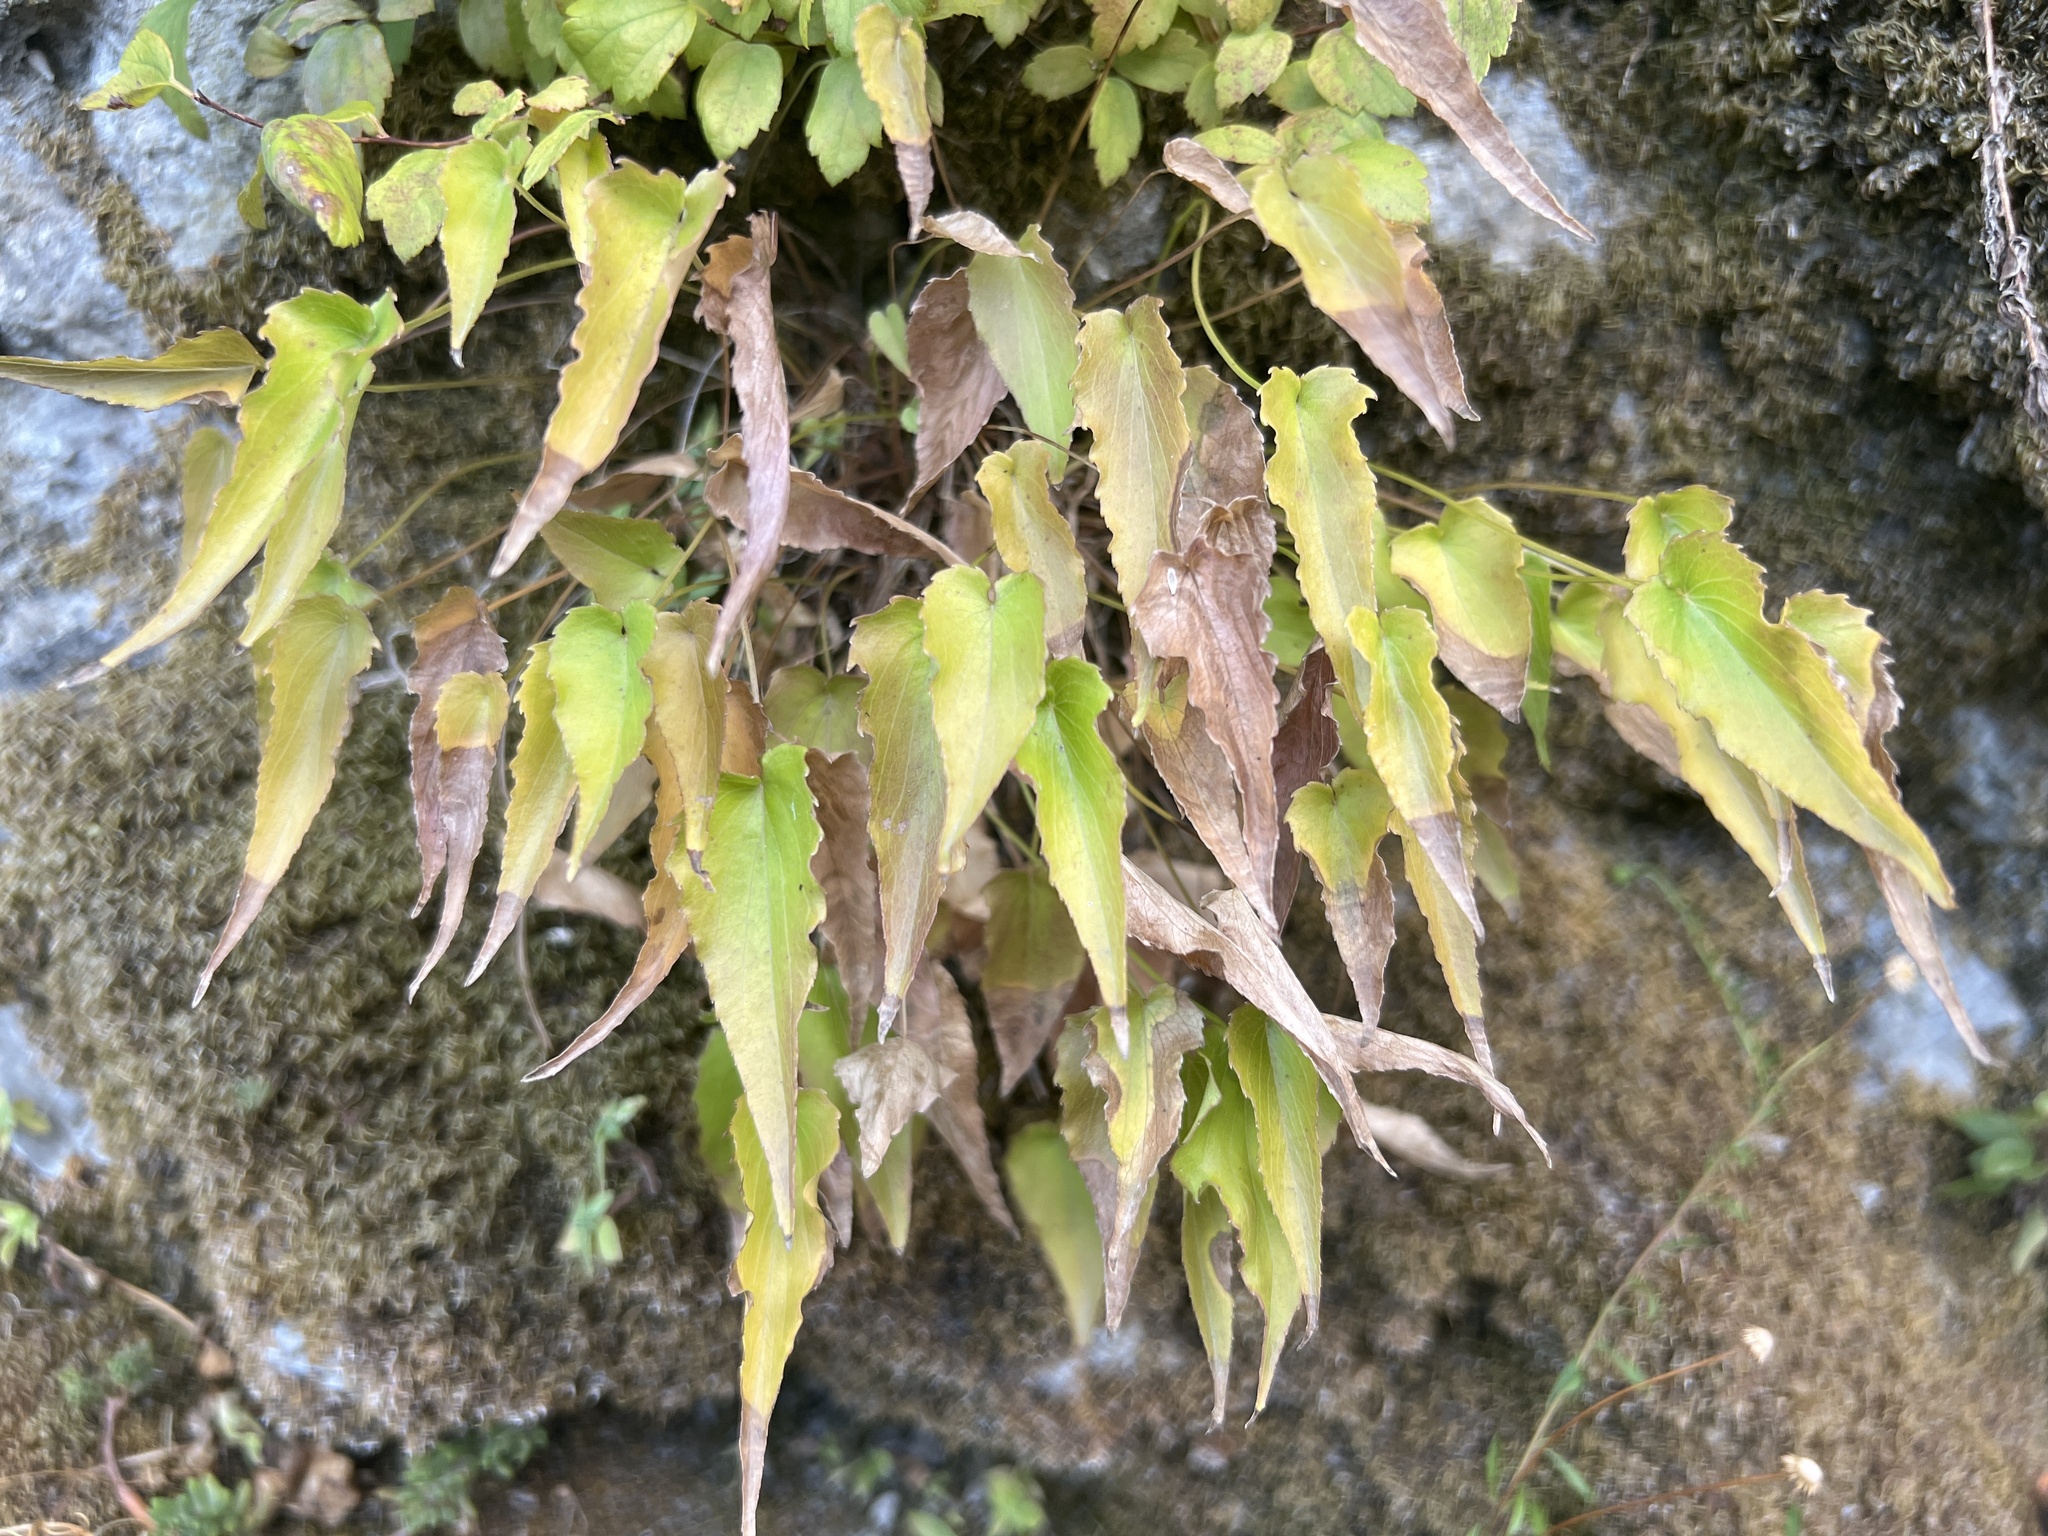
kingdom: Plantae
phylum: Tracheophyta
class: Magnoliopsida
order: Asterales
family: Campanulaceae
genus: Phyteuma
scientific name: Phyteuma scheuchzeri
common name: Oxford rampion
